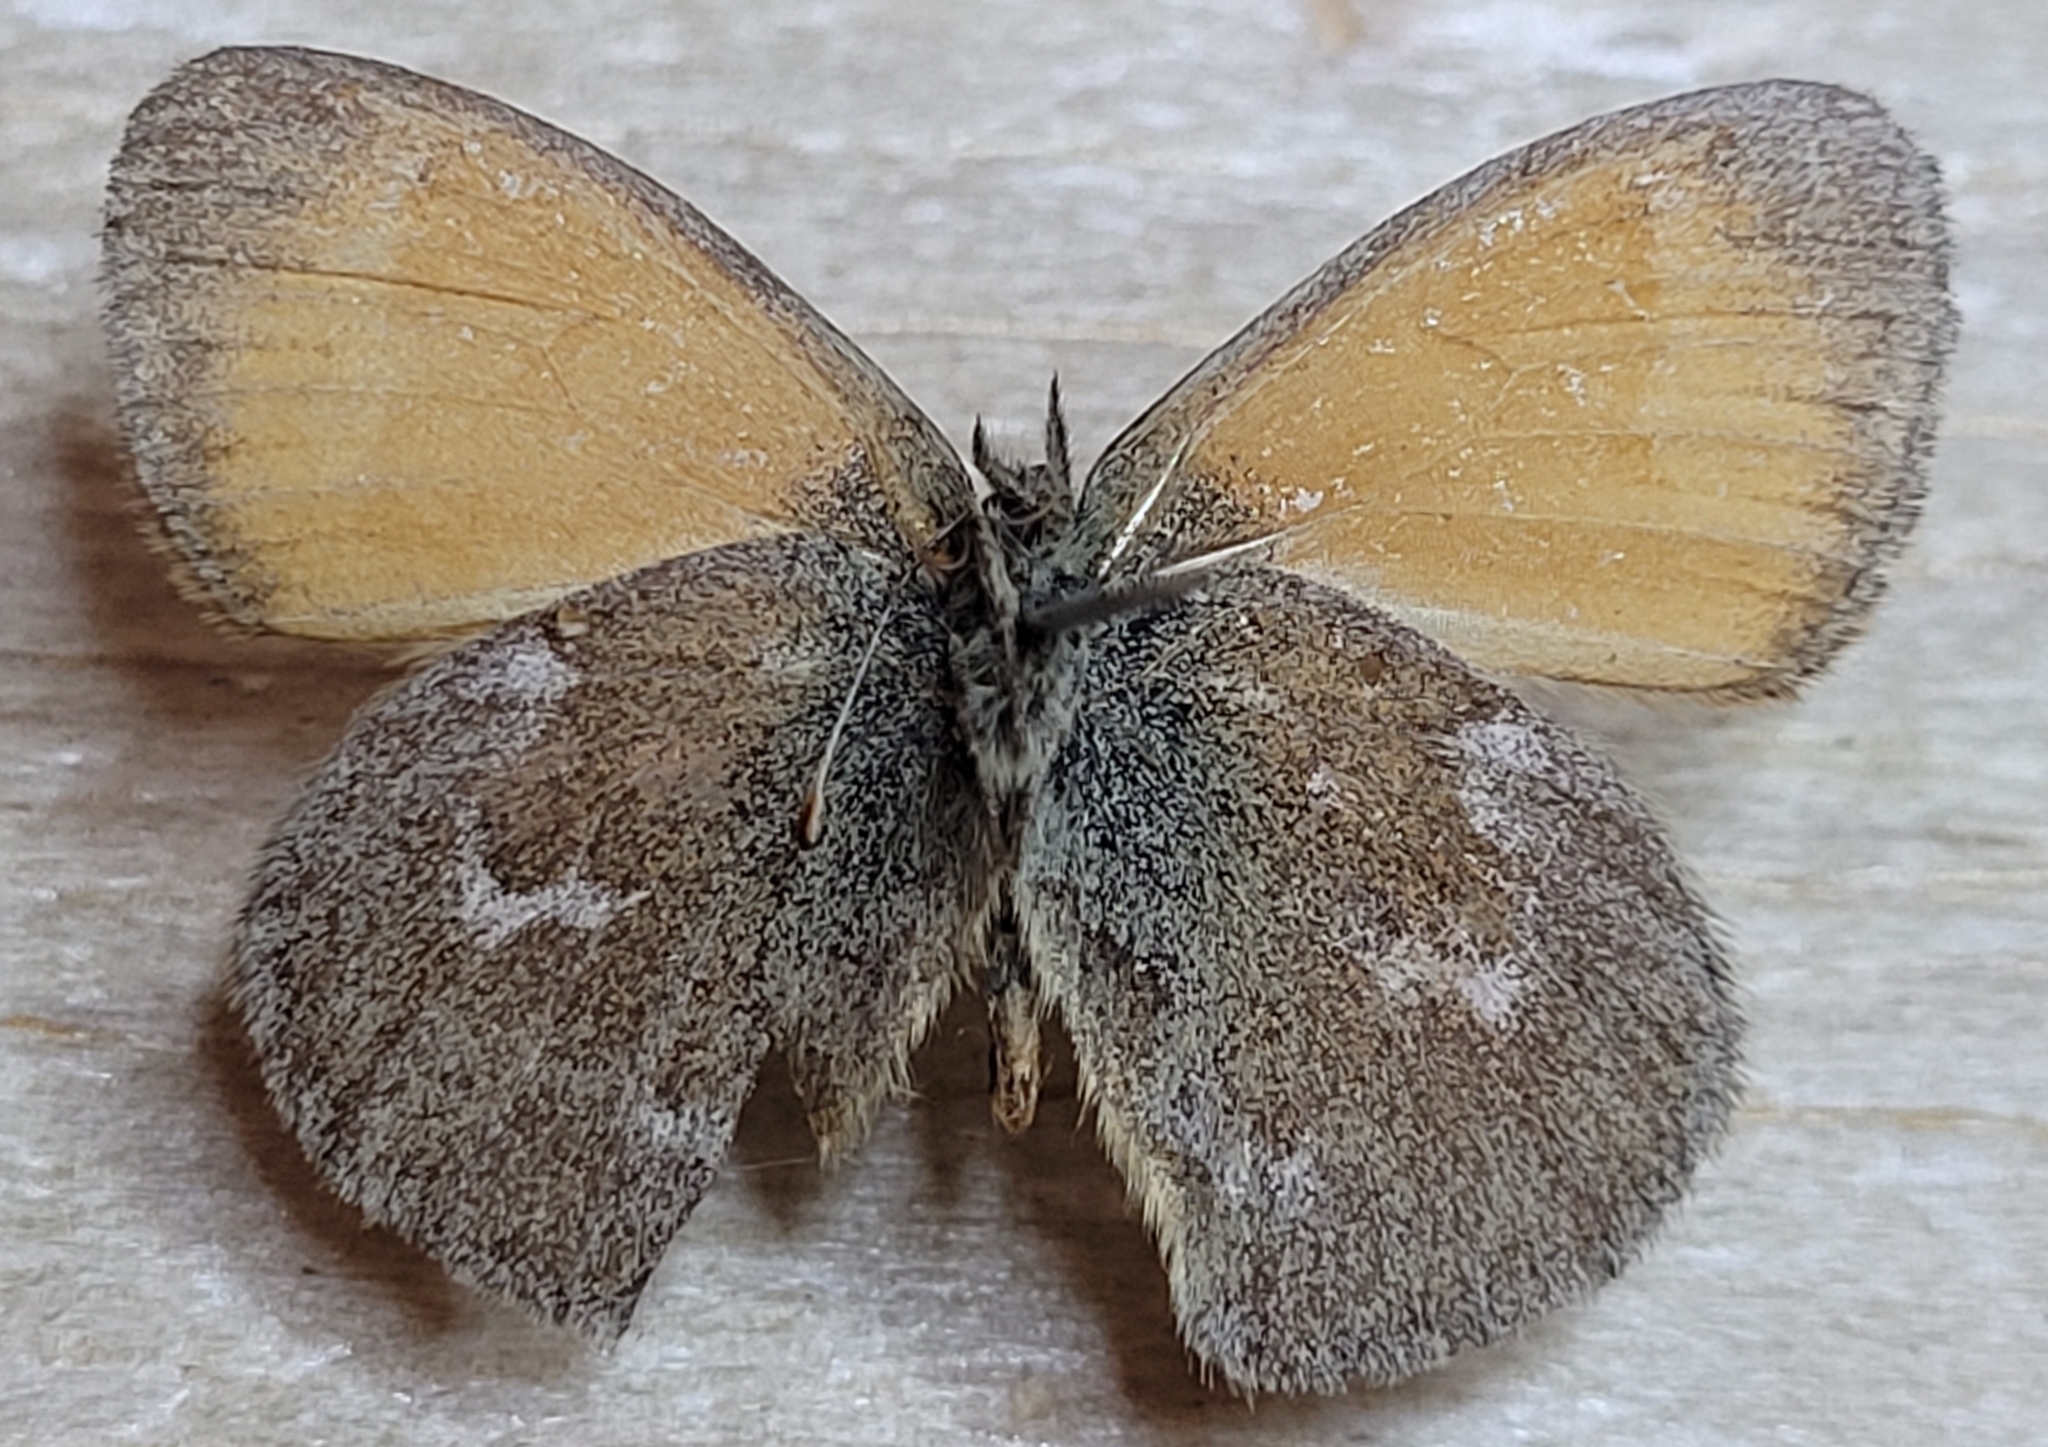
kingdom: Animalia
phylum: Arthropoda
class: Insecta
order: Lepidoptera
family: Nymphalidae
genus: Coenonympha
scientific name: Coenonympha california
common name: Common ringlet
